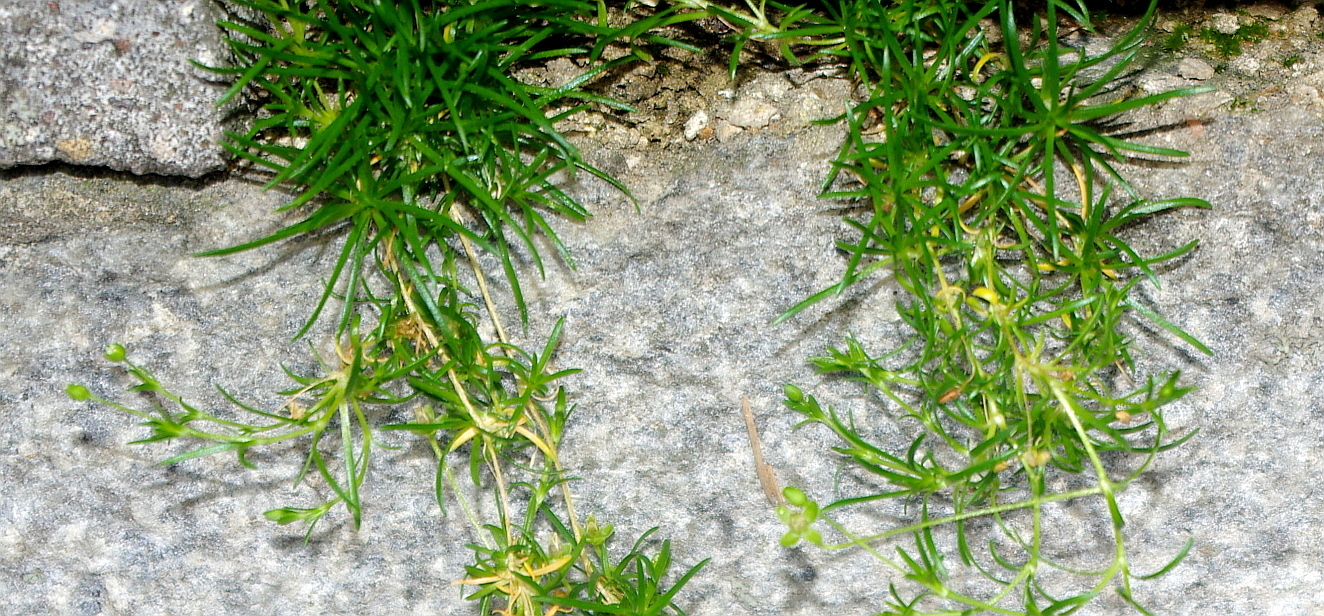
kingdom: Plantae
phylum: Tracheophyta
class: Magnoliopsida
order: Caryophyllales
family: Caryophyllaceae
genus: Sagina
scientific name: Sagina procumbens
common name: Procumbent pearlwort
